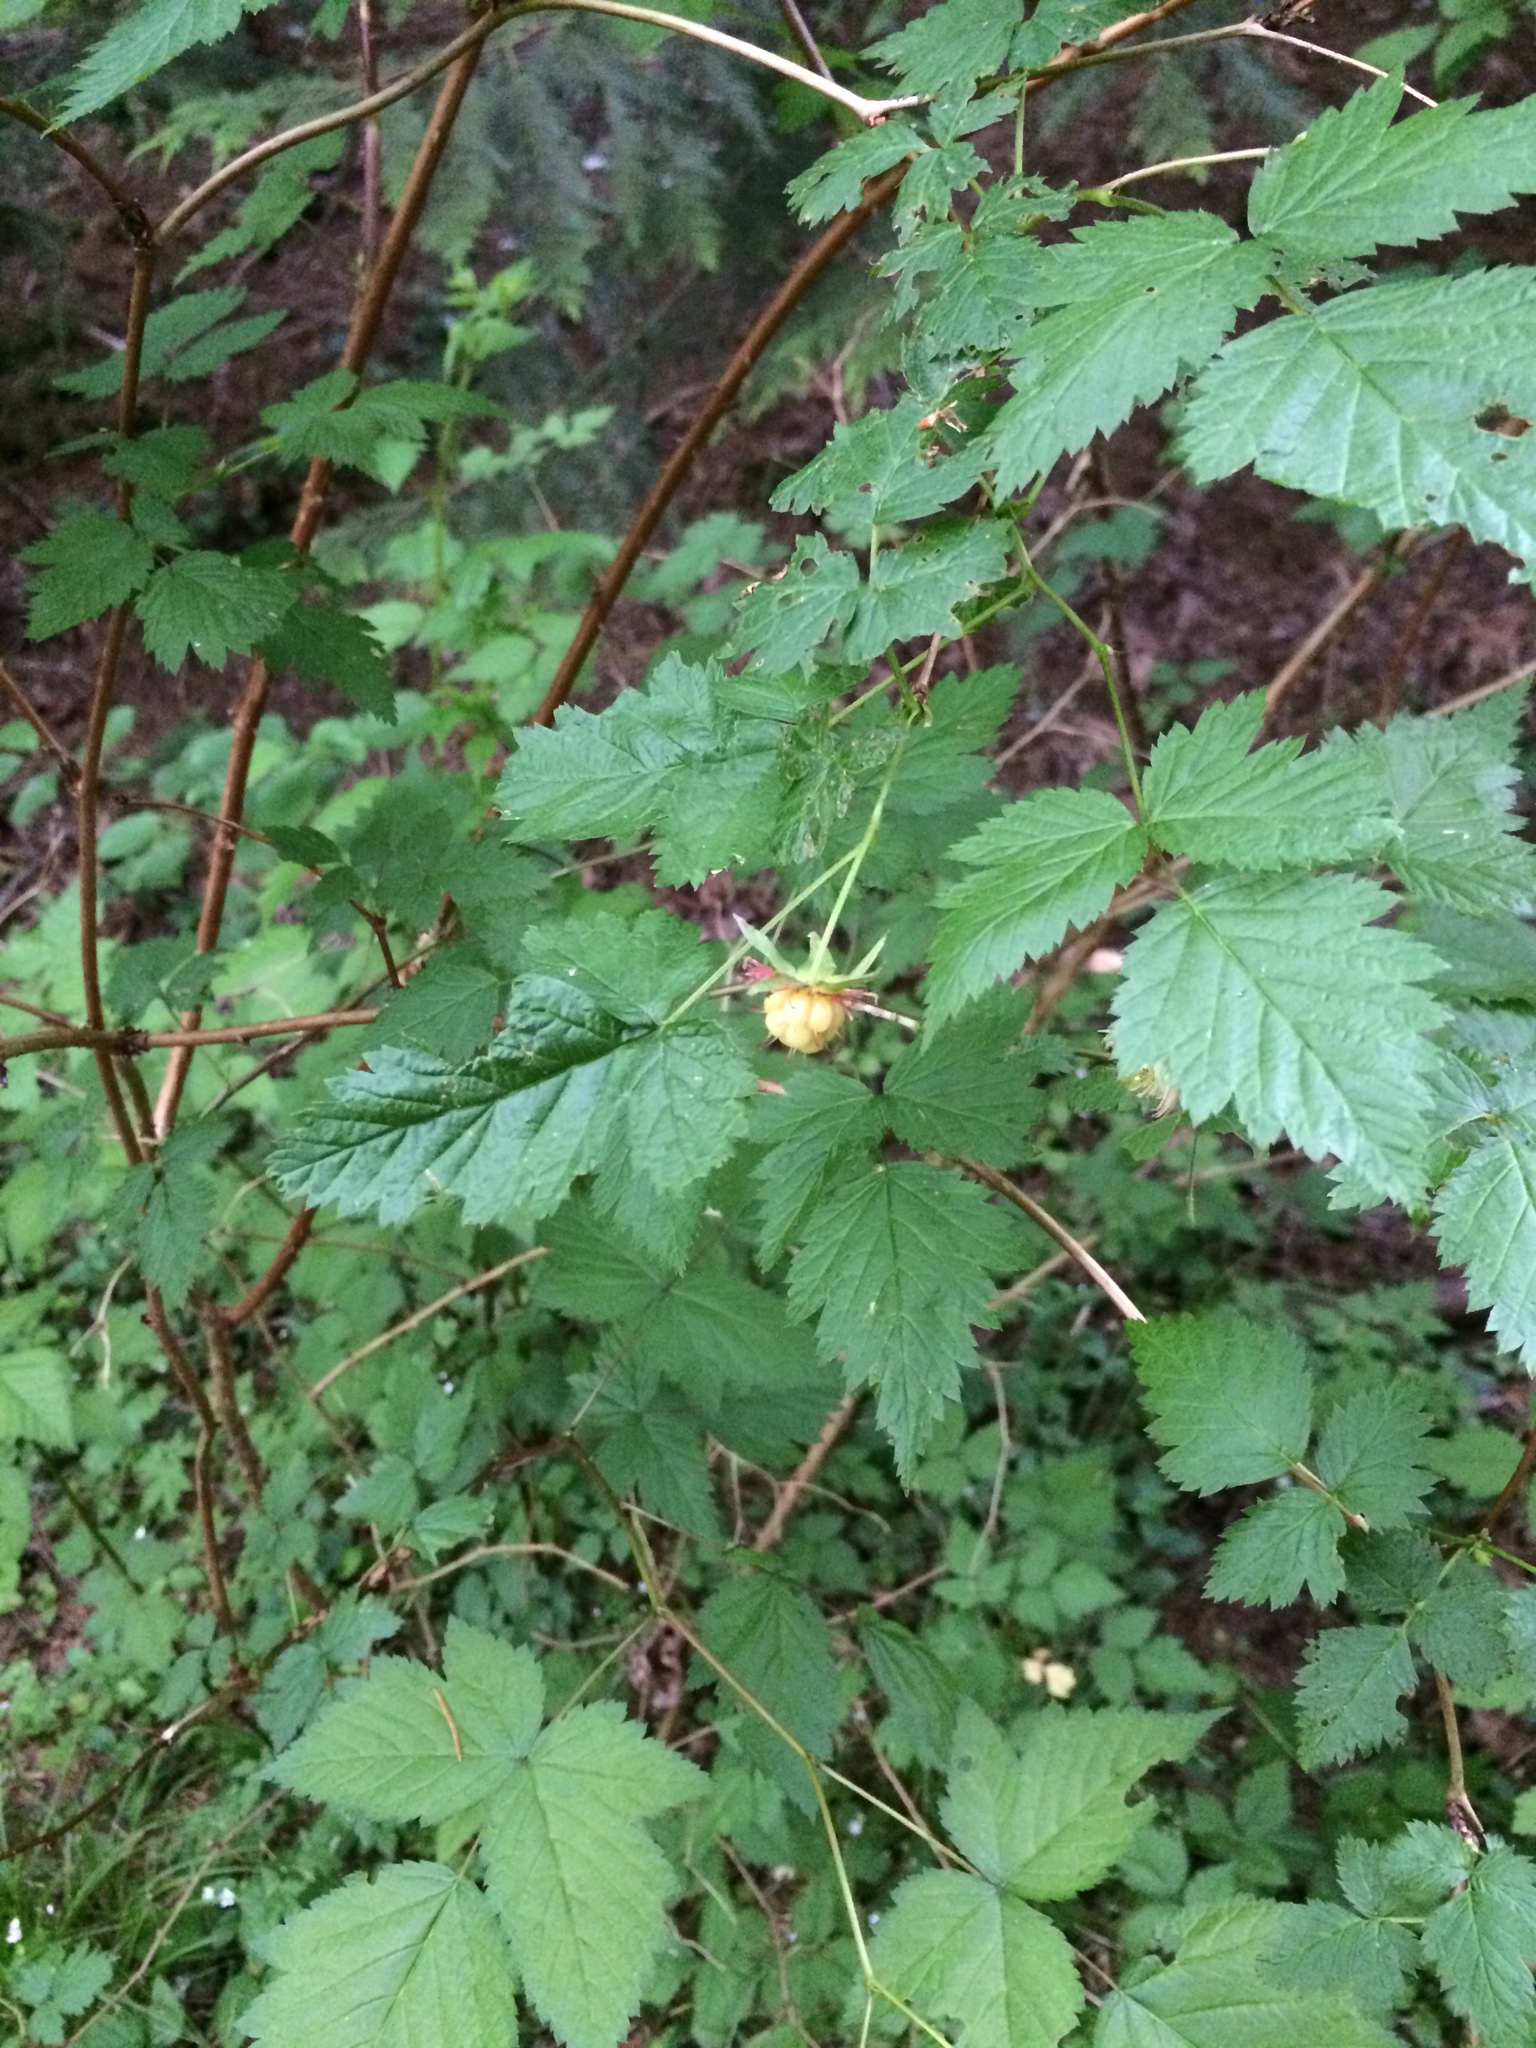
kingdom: Plantae
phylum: Tracheophyta
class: Magnoliopsida
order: Rosales
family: Rosaceae
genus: Rubus
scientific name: Rubus spectabilis
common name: Salmonberry
